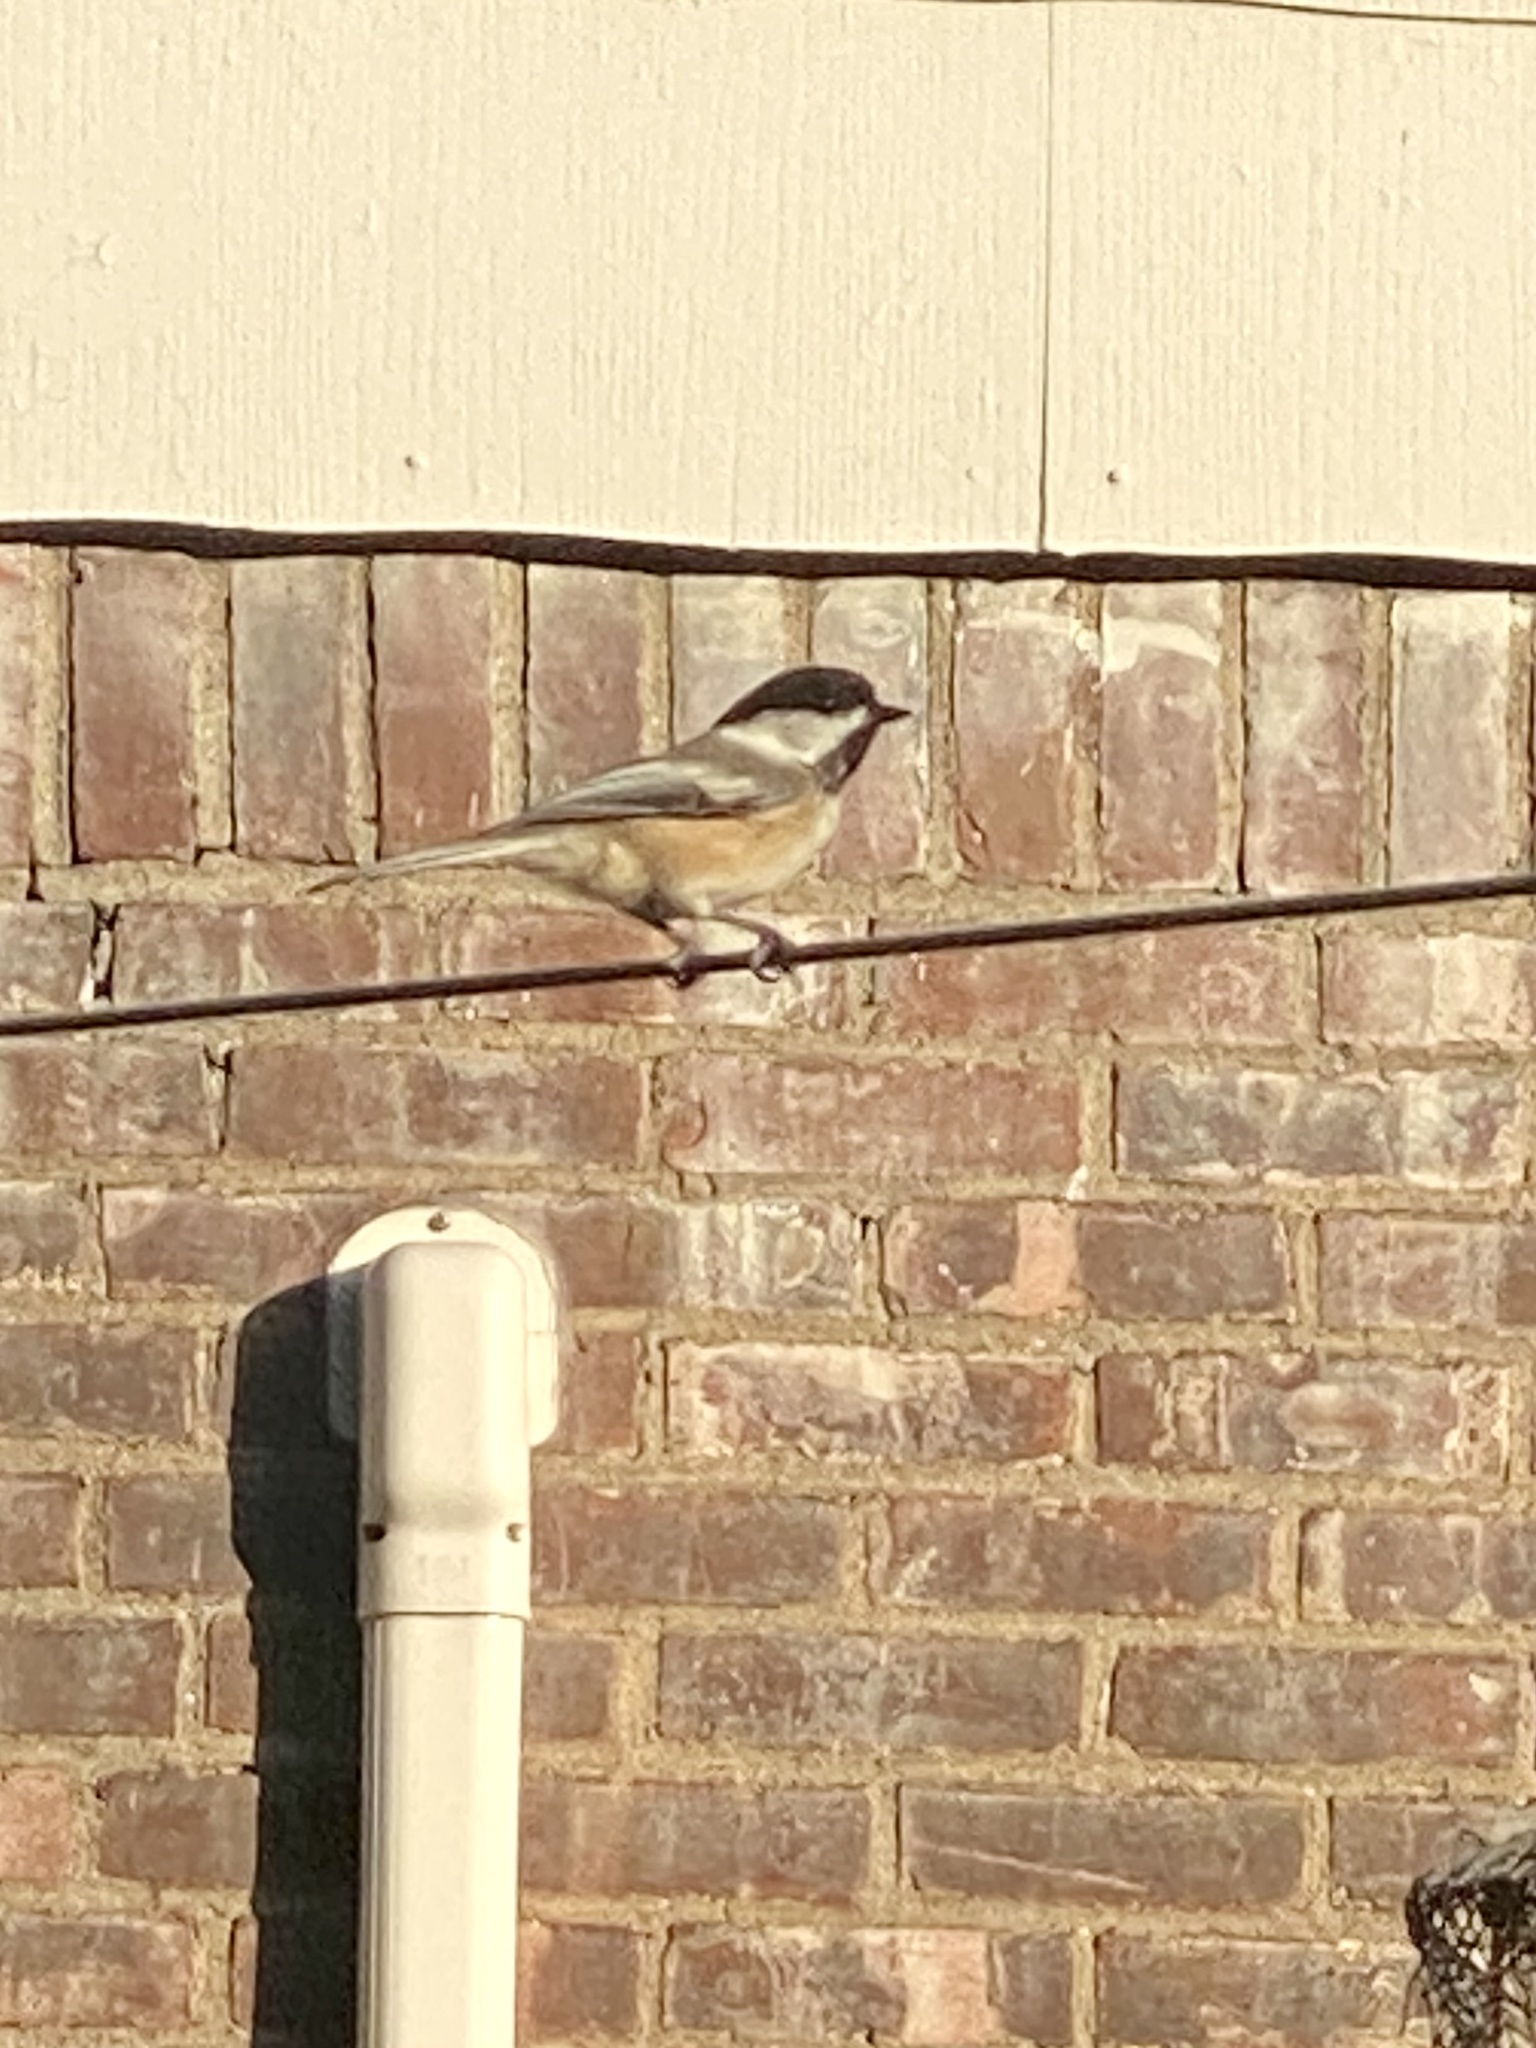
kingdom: Animalia
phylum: Chordata
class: Aves
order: Passeriformes
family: Paridae
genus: Poecile
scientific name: Poecile atricapillus
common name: Black-capped chickadee
